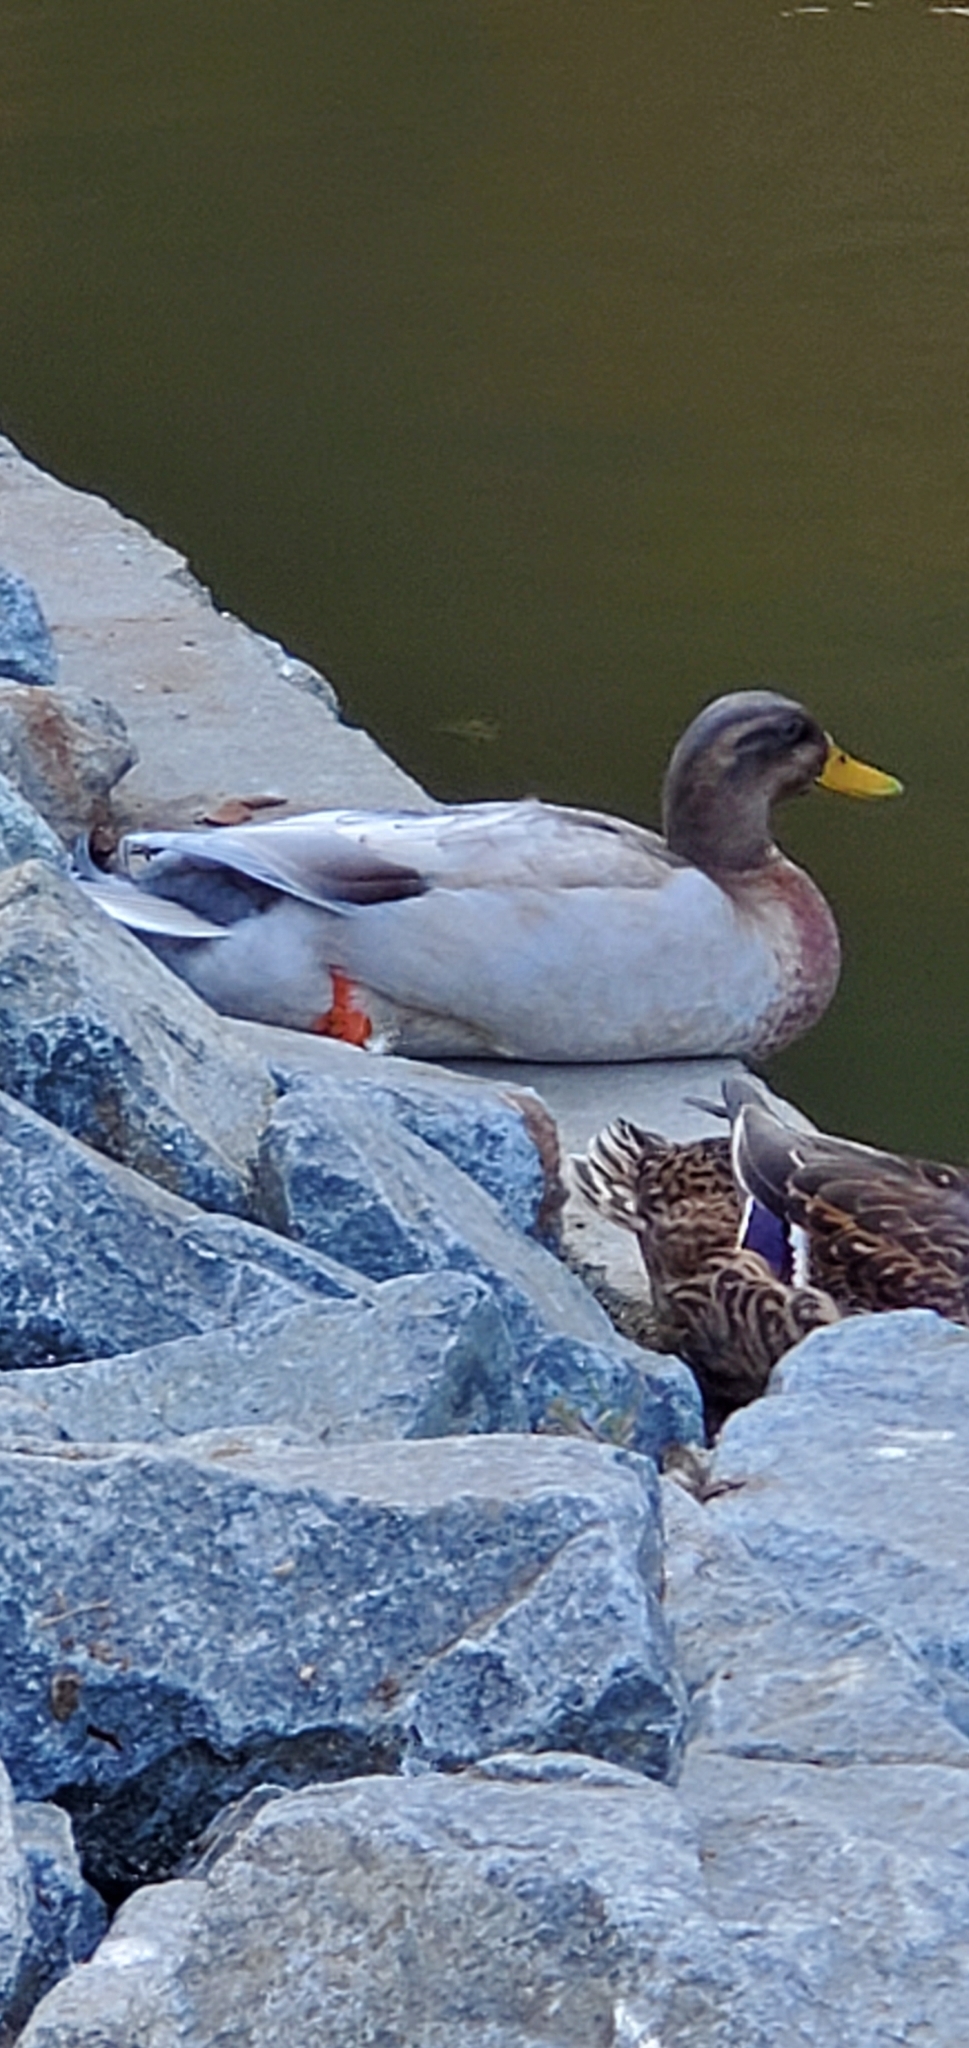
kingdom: Animalia
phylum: Chordata
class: Aves
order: Anseriformes
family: Anatidae
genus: Anas
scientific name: Anas platyrhynchos
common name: Mallard
